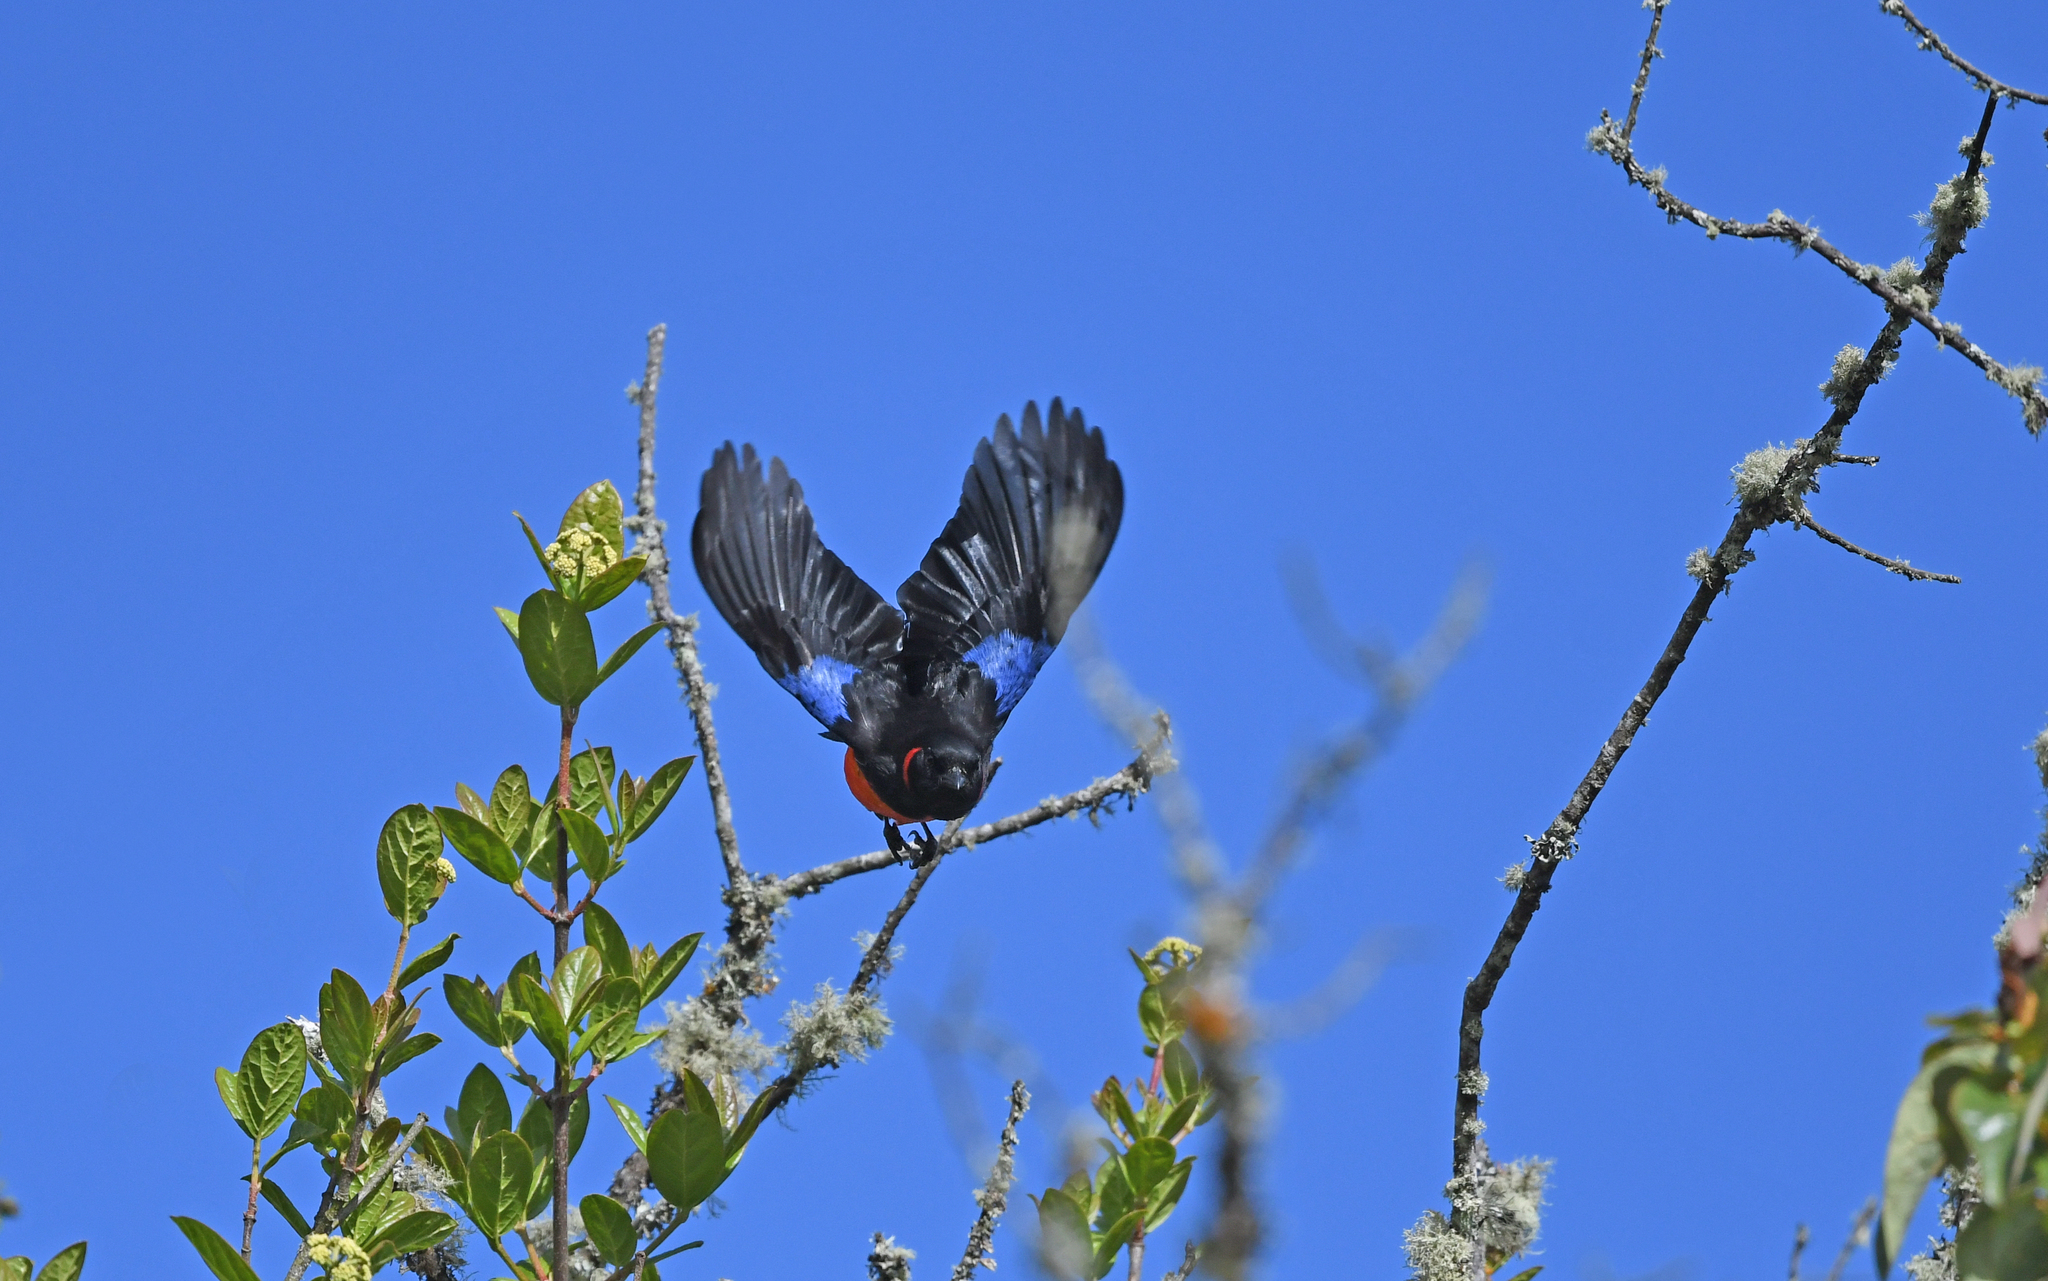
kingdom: Animalia
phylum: Chordata
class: Aves
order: Passeriformes
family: Thraupidae
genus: Anisognathus
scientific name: Anisognathus igniventris
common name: Scarlet-bellied mountain tanager
